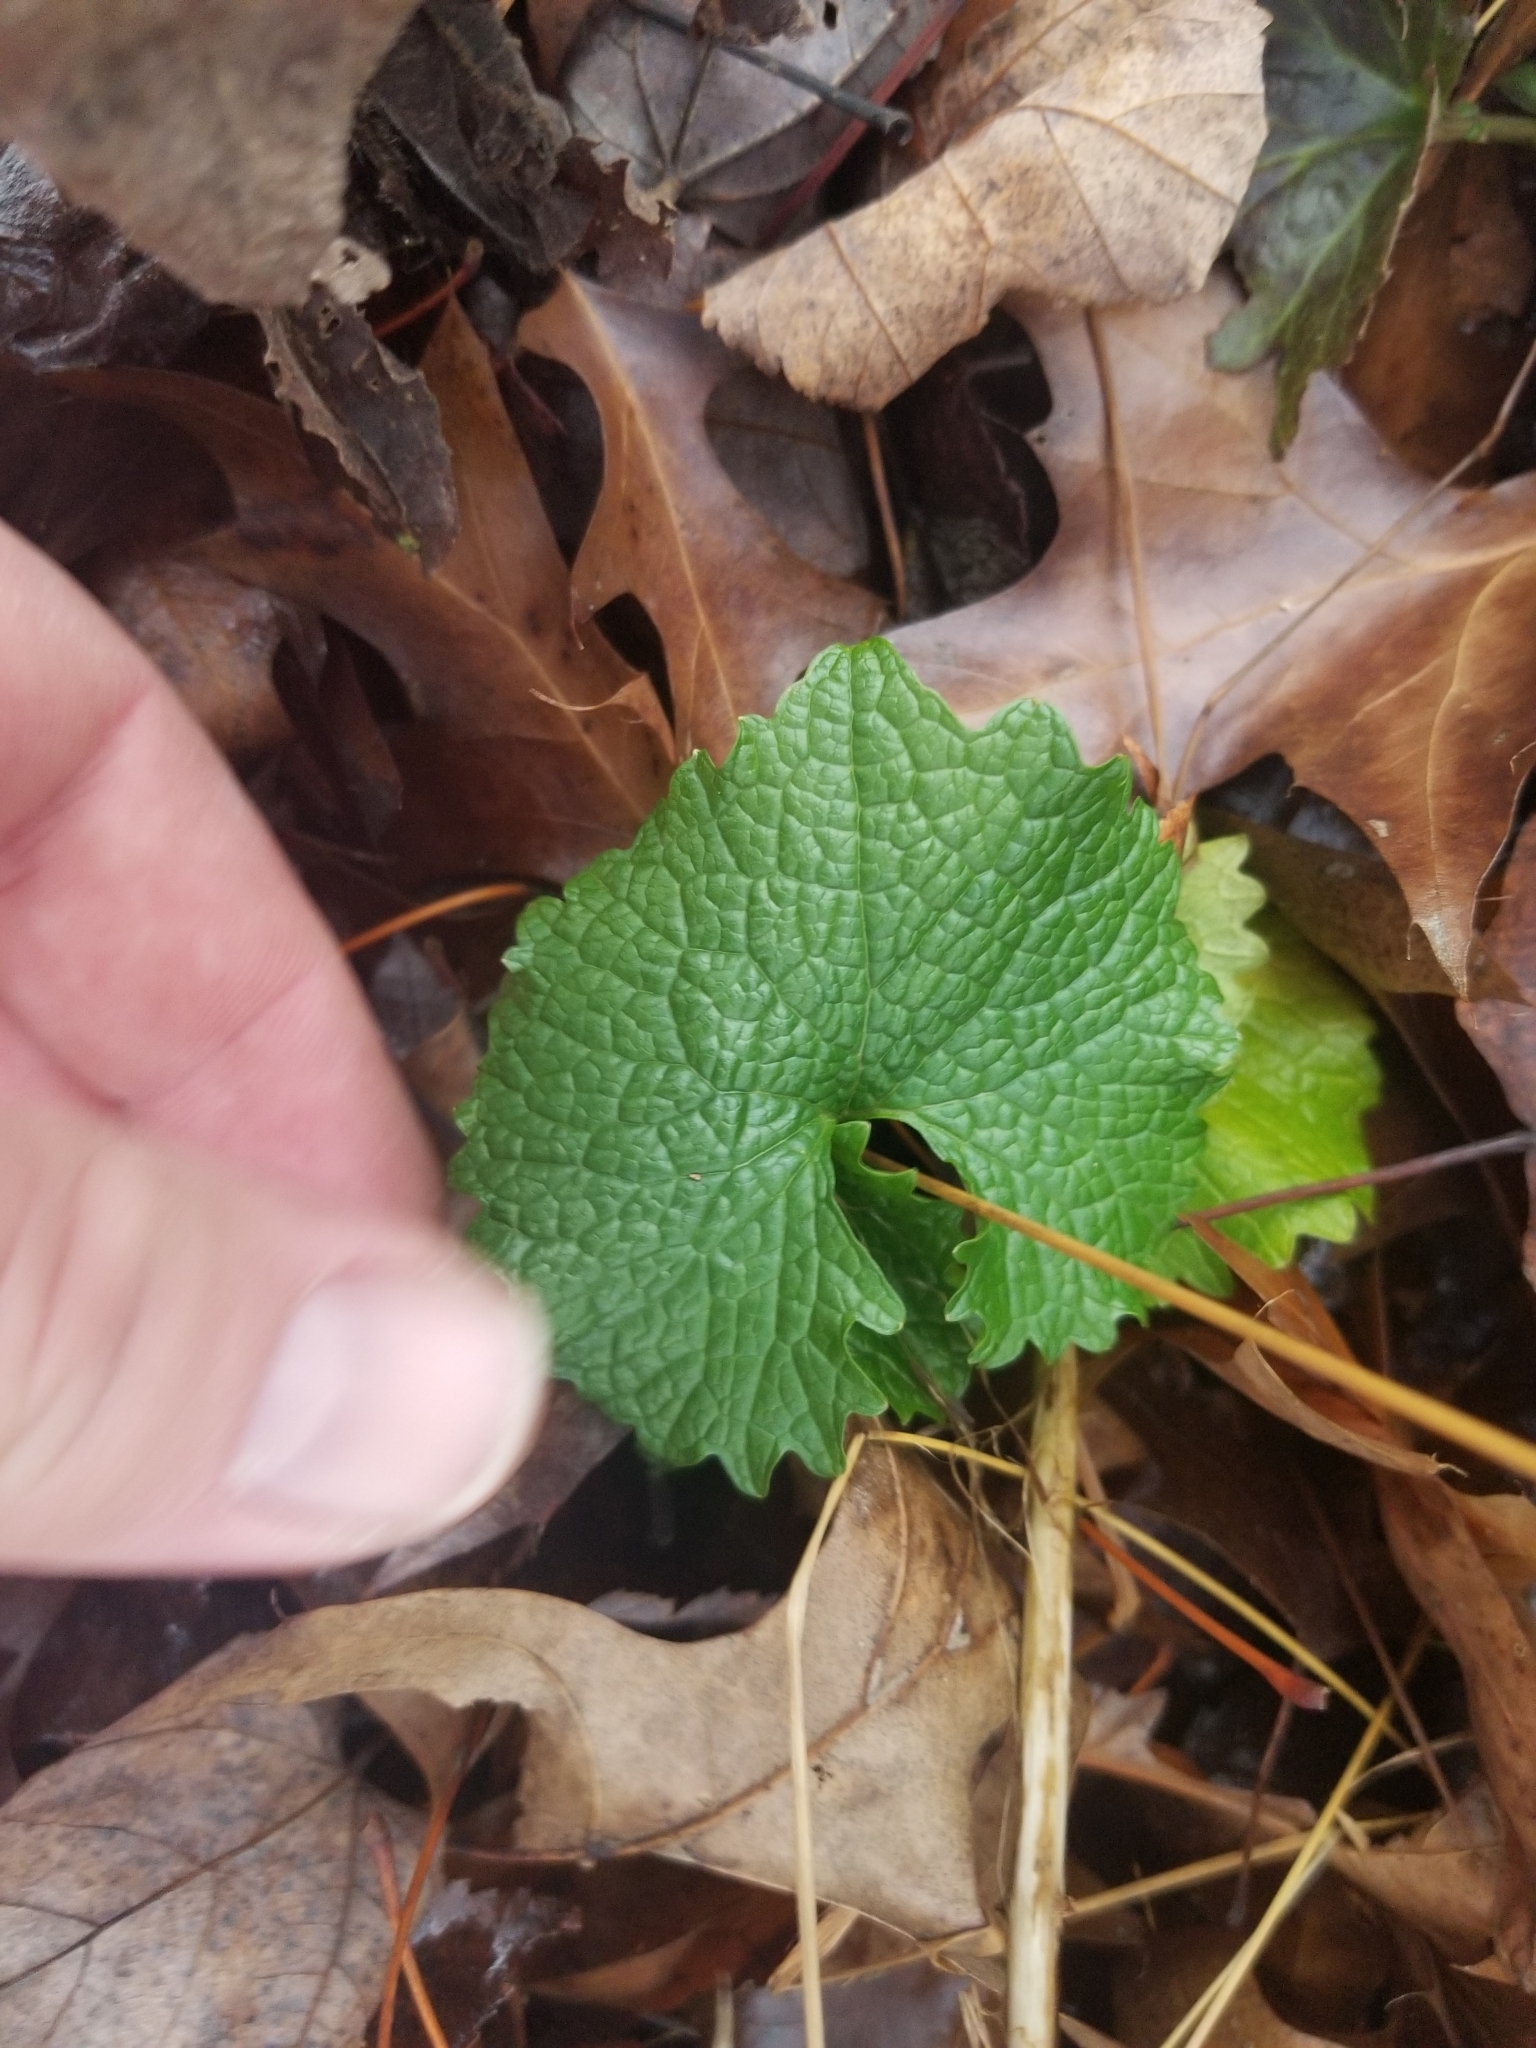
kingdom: Plantae
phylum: Tracheophyta
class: Magnoliopsida
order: Brassicales
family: Brassicaceae
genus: Alliaria
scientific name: Alliaria petiolata
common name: Garlic mustard
